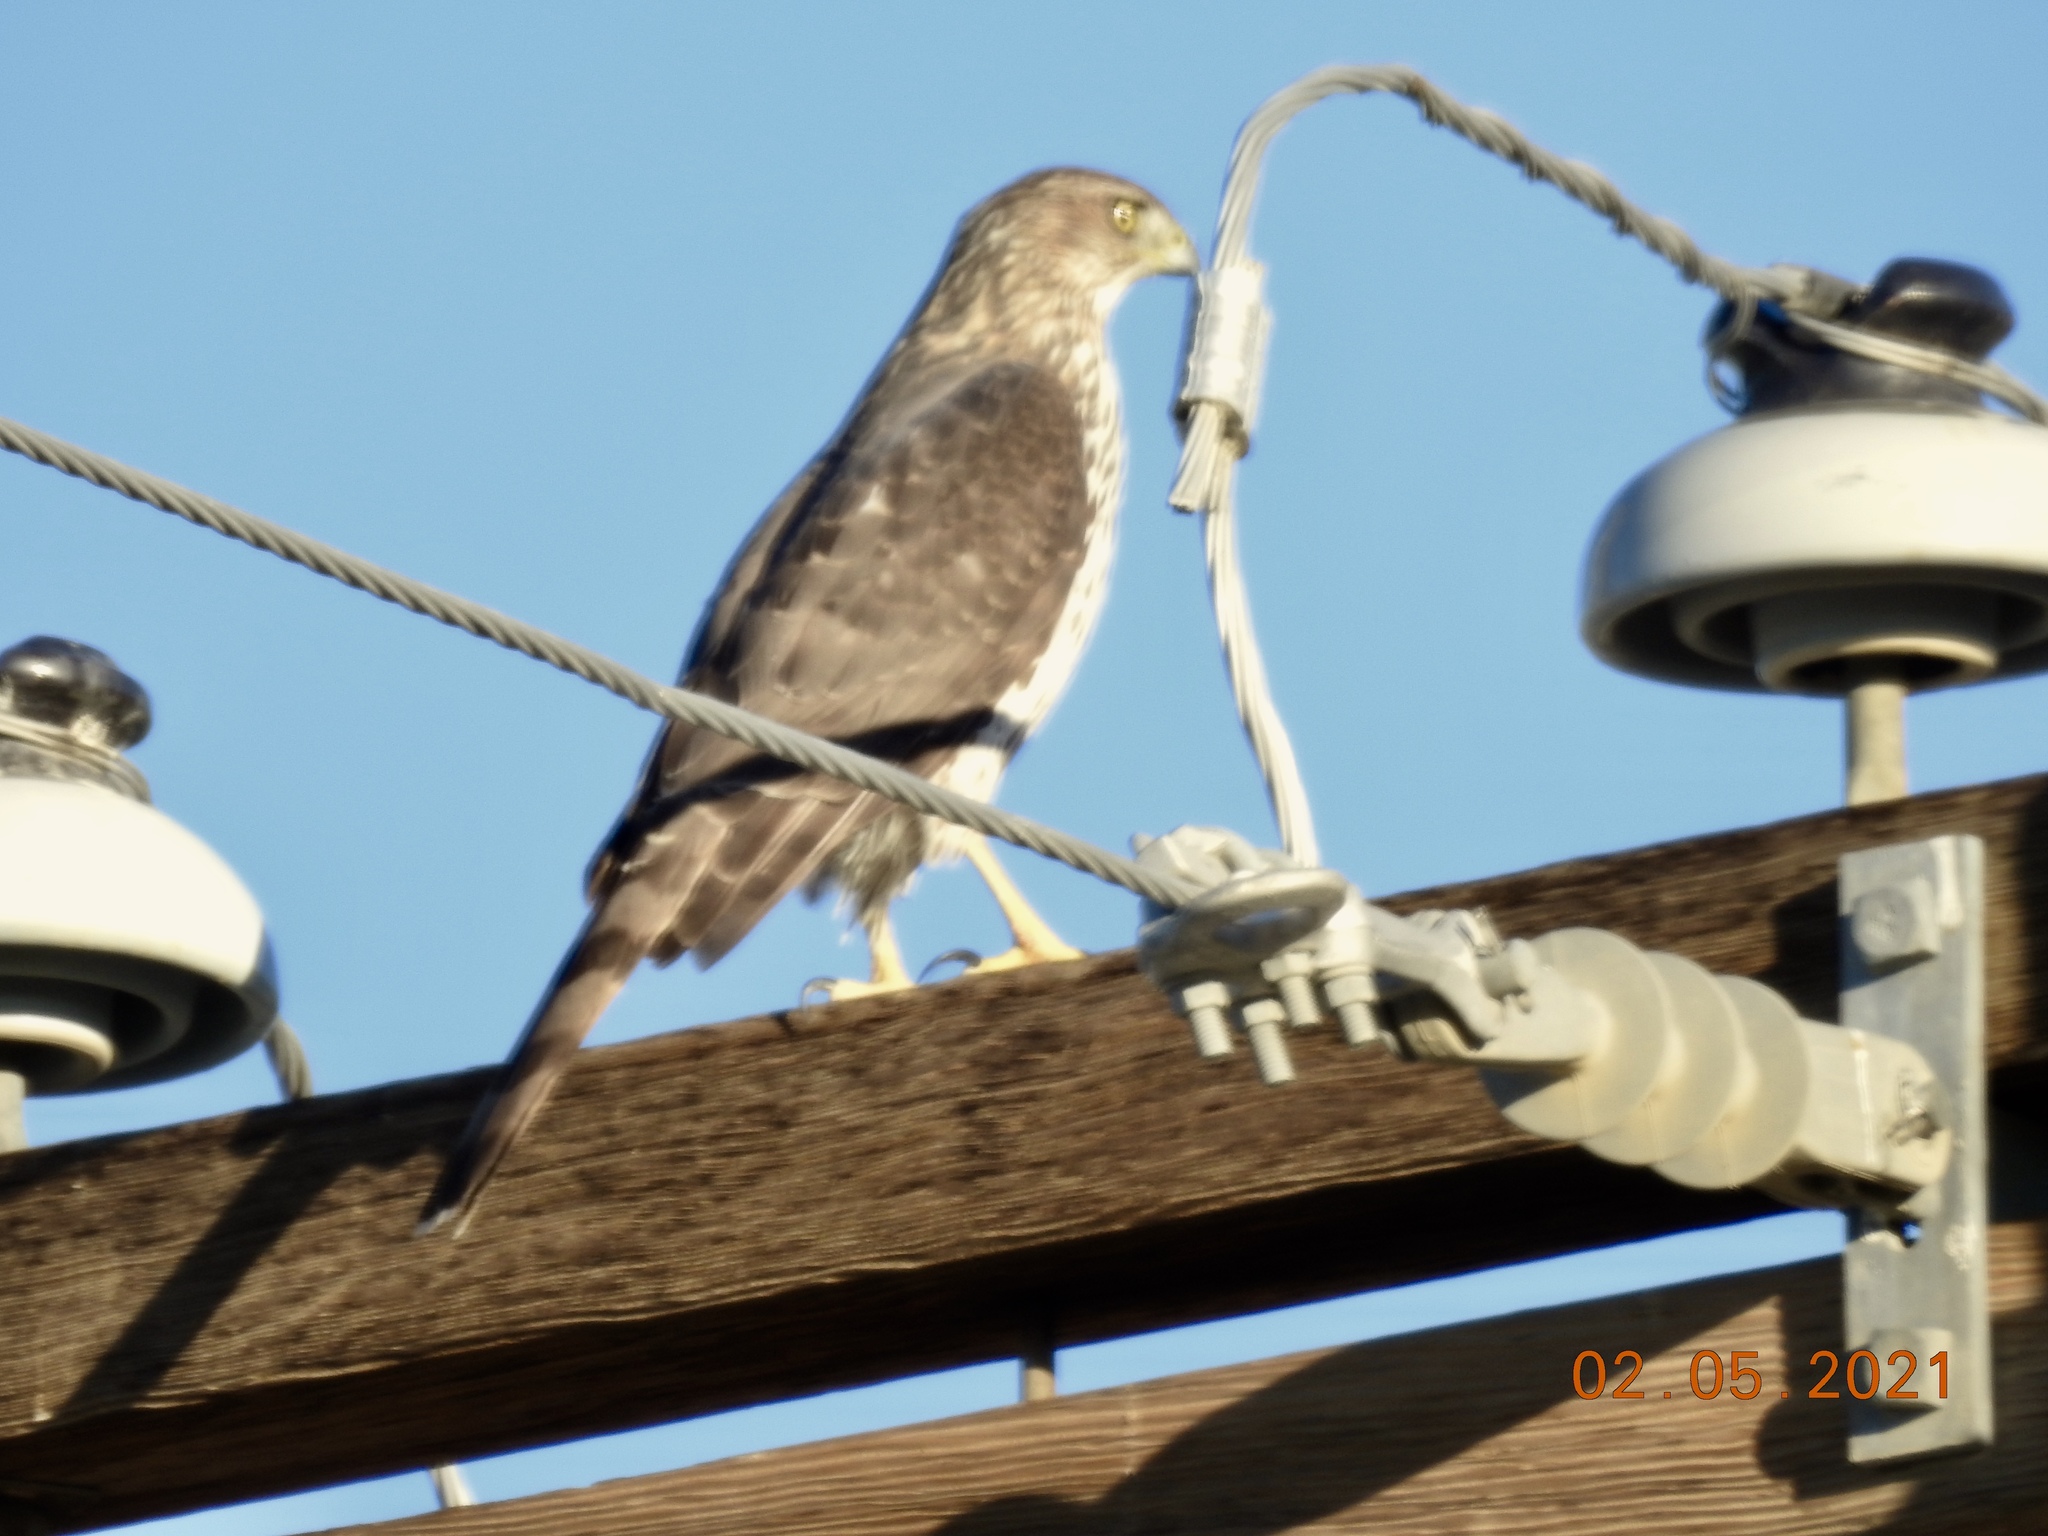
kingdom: Animalia
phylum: Chordata
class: Aves
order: Accipitriformes
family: Accipitridae
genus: Accipiter
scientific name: Accipiter cooperii
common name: Cooper's hawk
